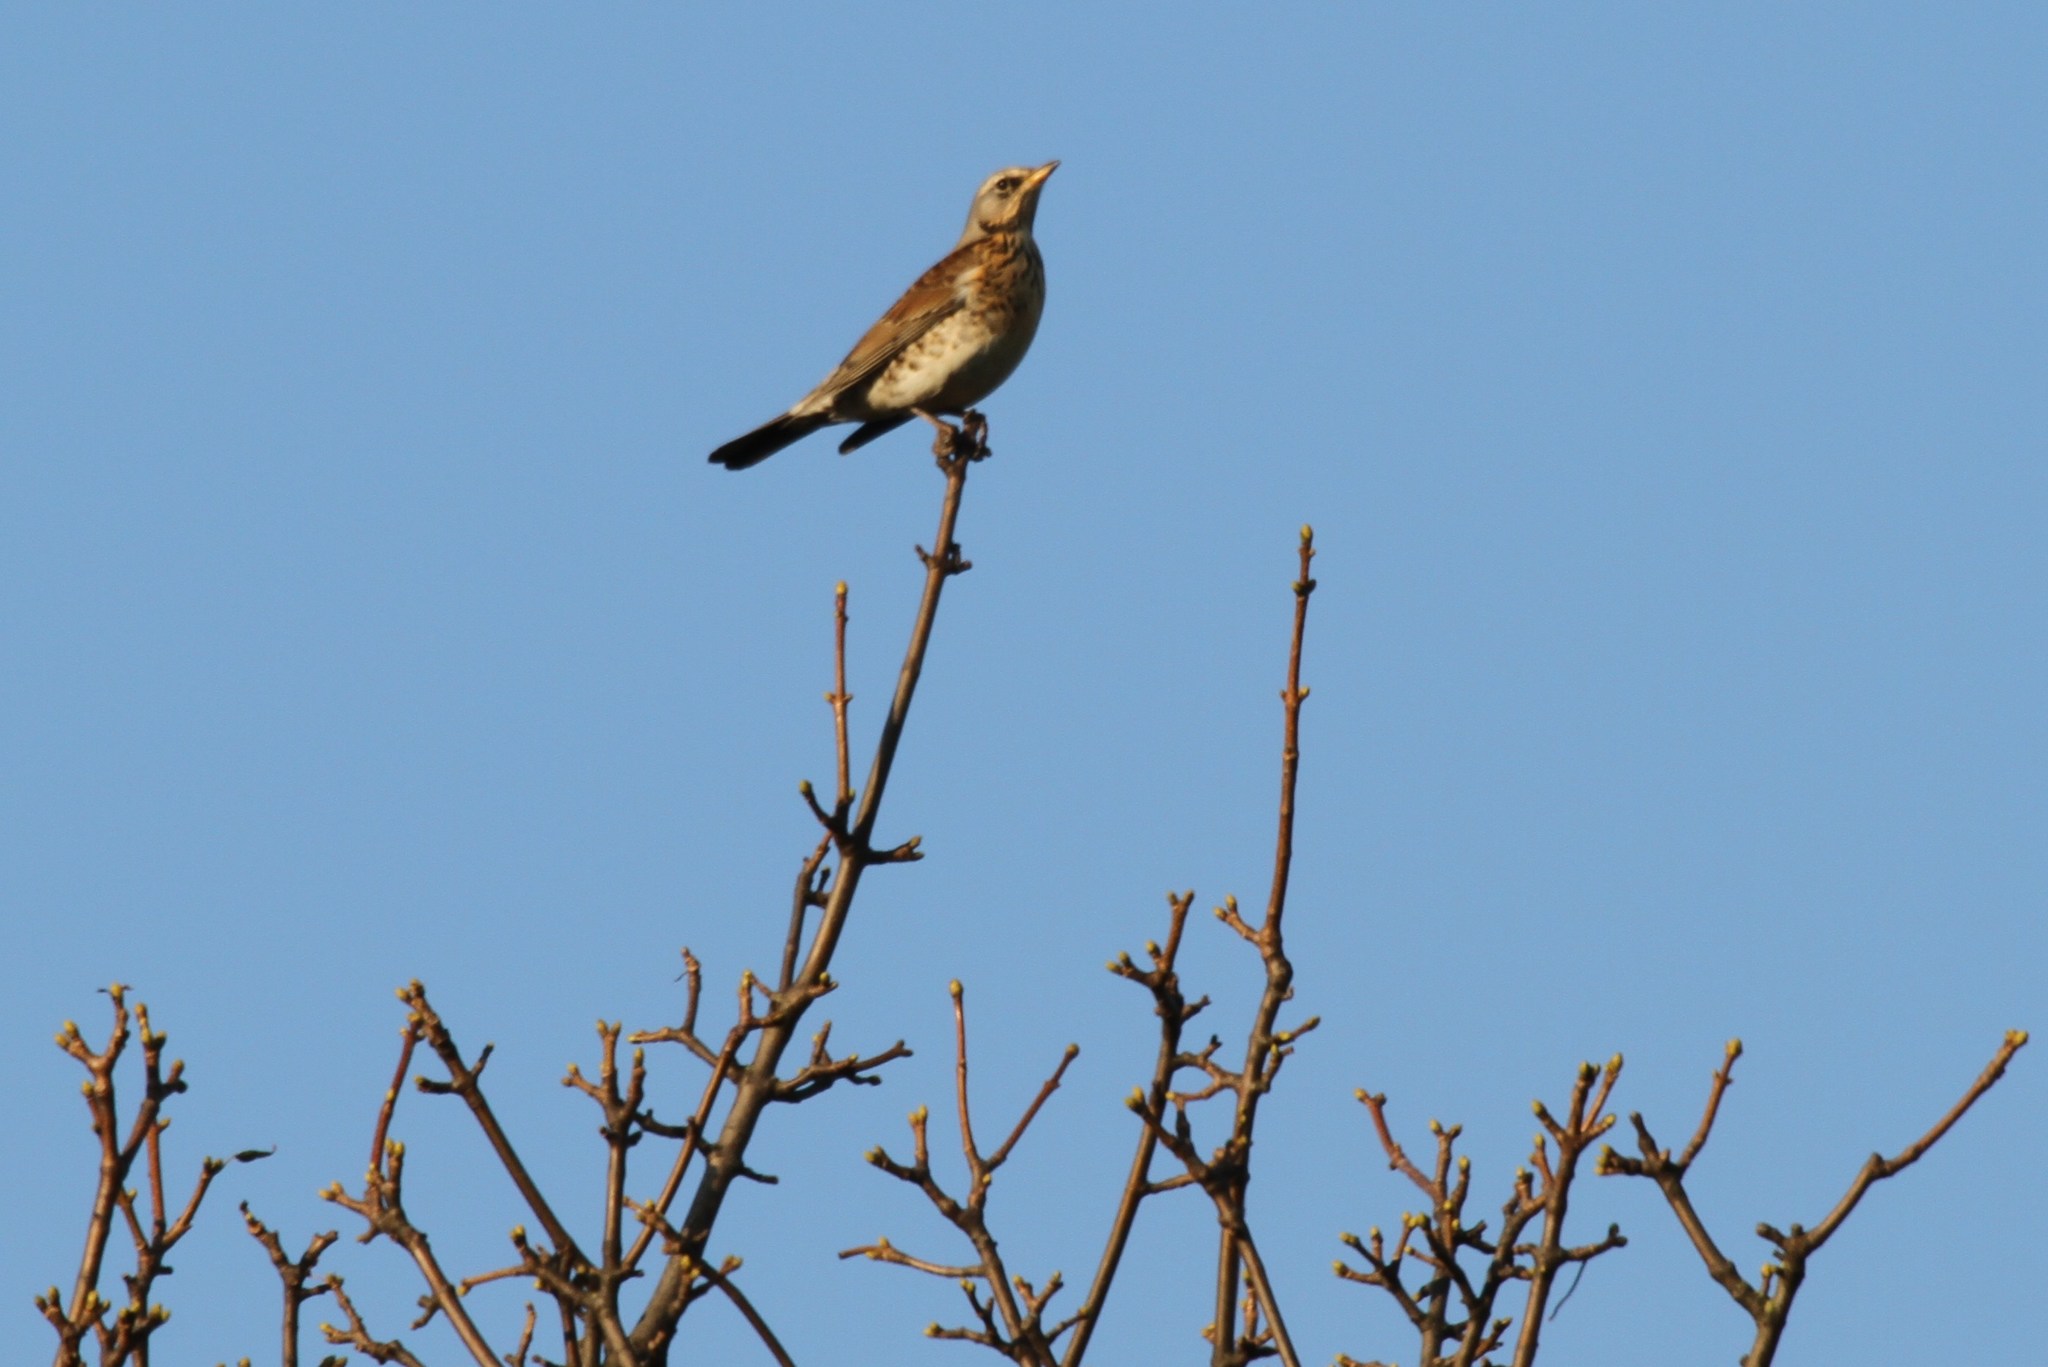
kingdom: Animalia
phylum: Chordata
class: Aves
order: Passeriformes
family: Turdidae
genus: Turdus
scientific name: Turdus pilaris
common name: Fieldfare
